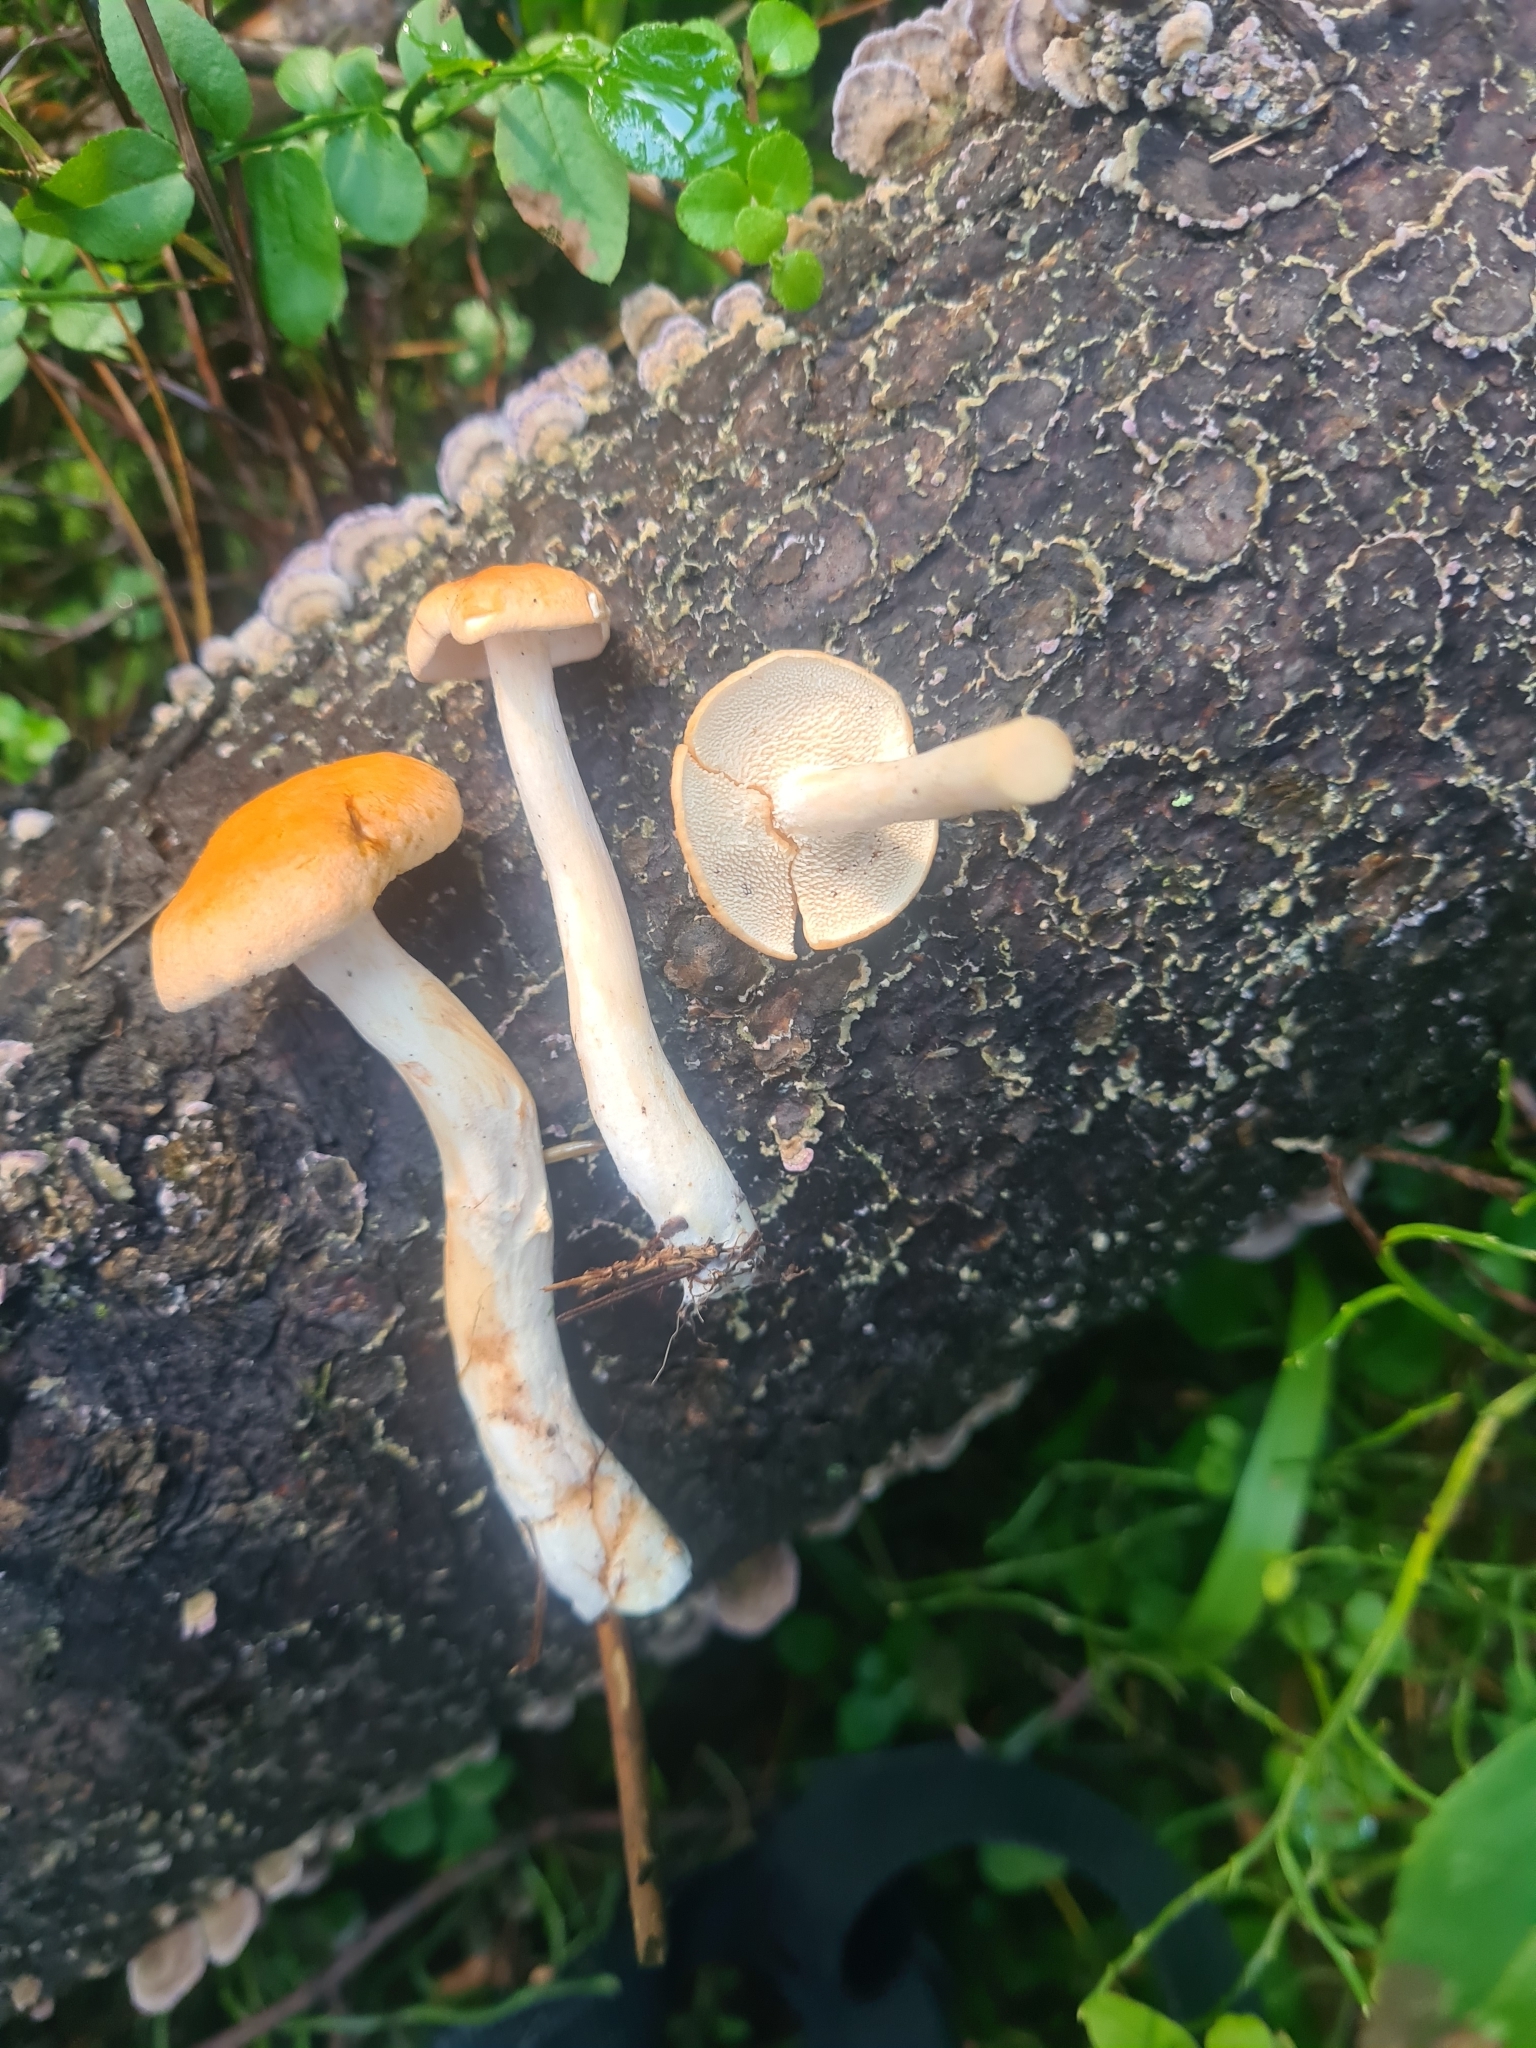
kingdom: Fungi
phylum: Basidiomycota
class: Agaricomycetes
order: Cantharellales
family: Hydnaceae
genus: Hydnum
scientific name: Hydnum rufescens
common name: Terracotta hedgehog
